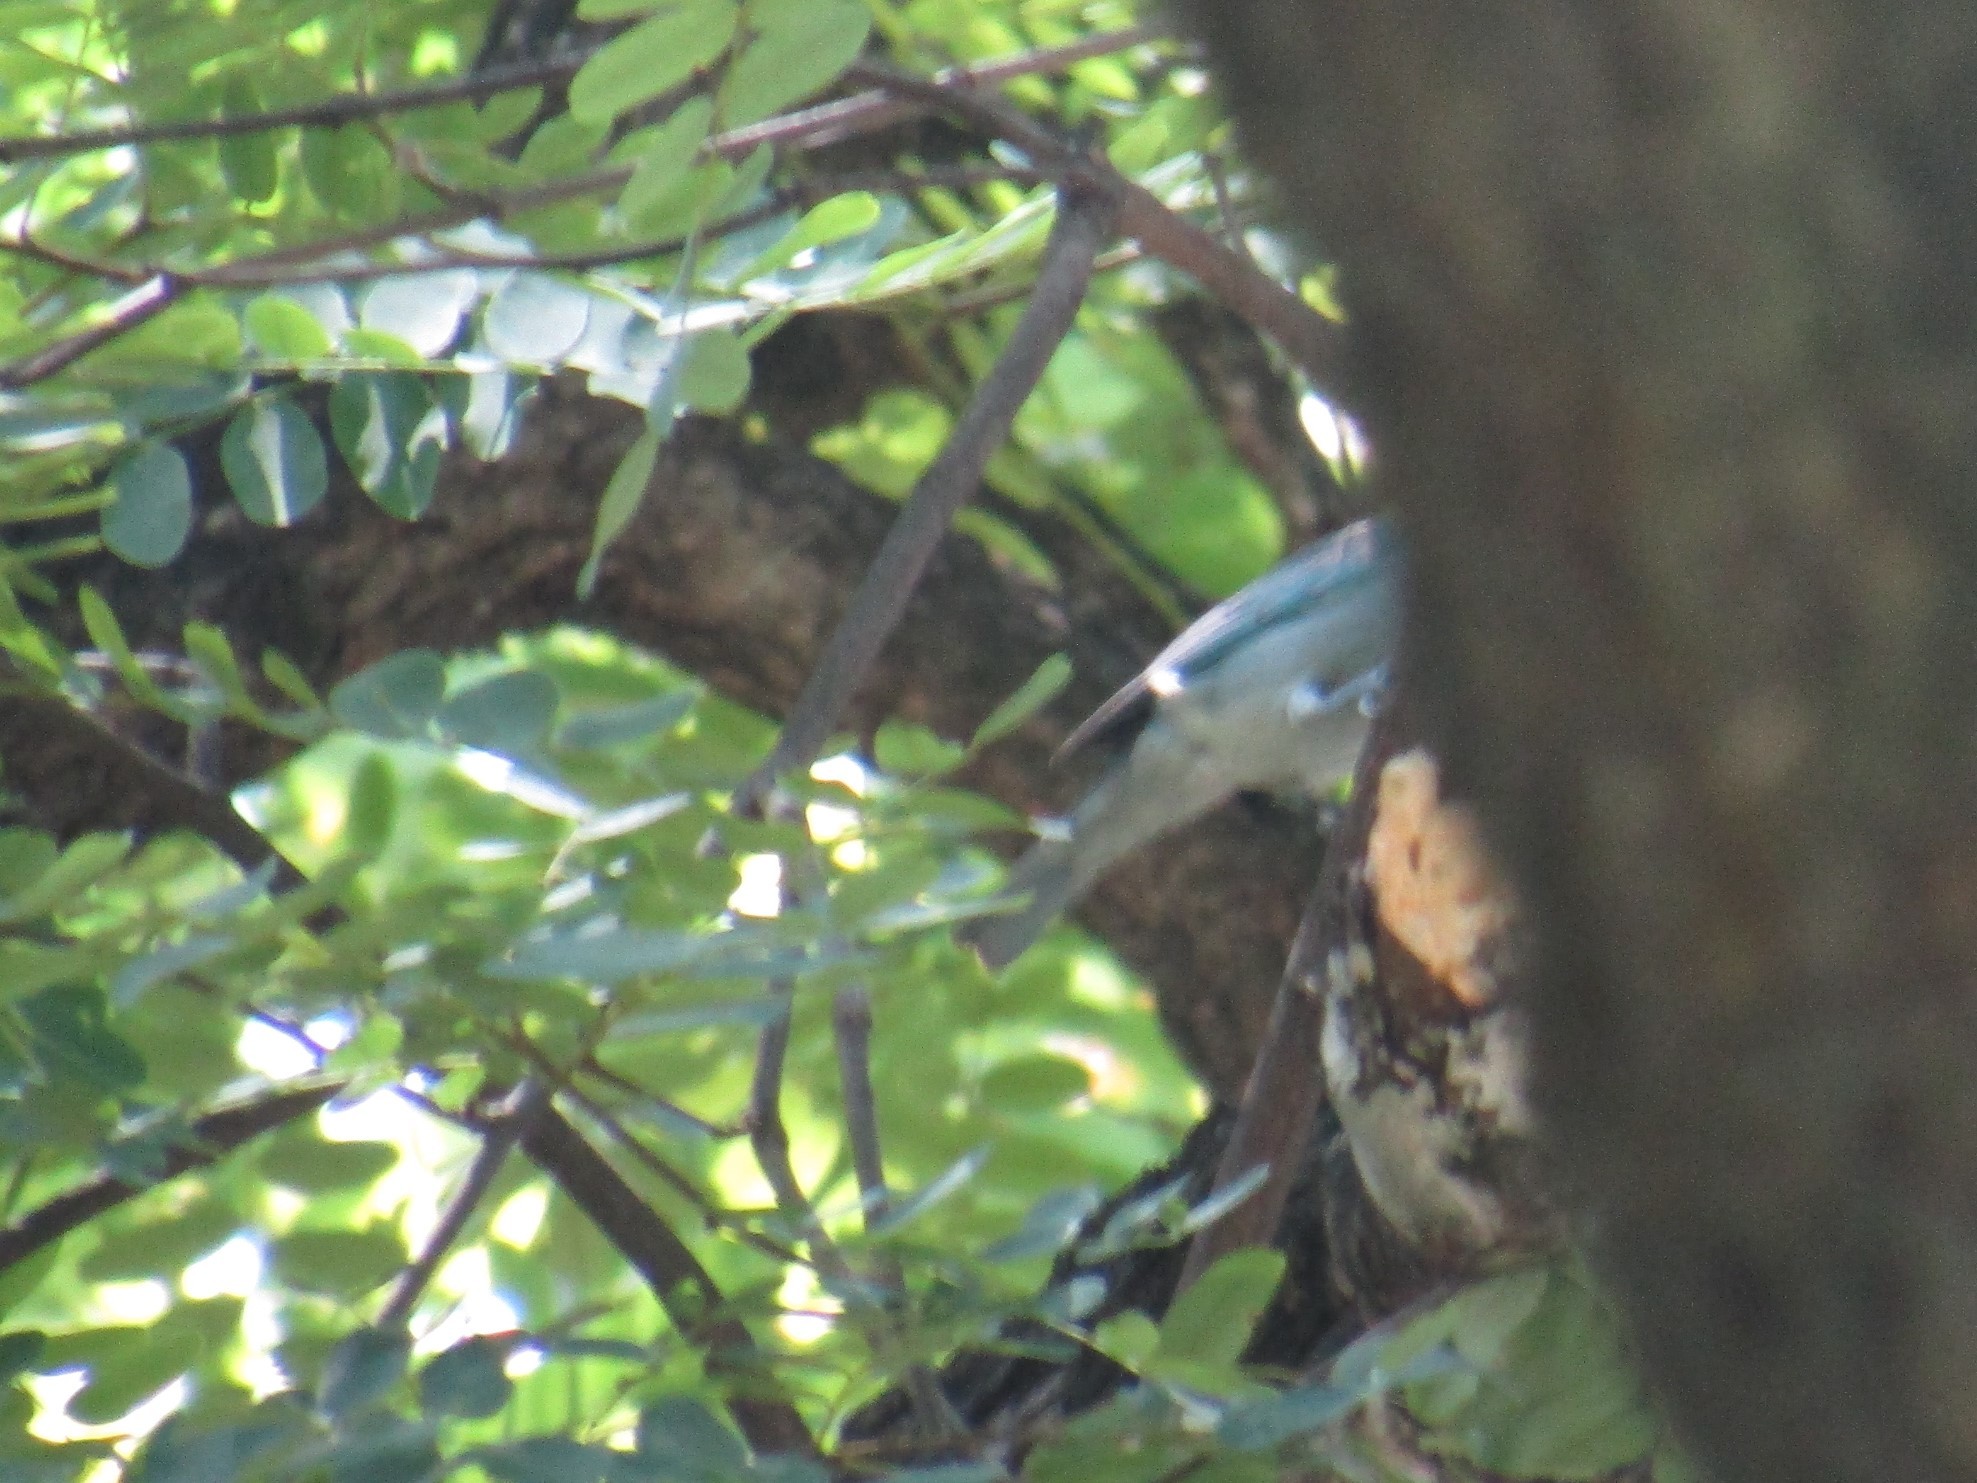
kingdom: Animalia
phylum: Chordata
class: Aves
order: Passeriformes
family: Thraupidae
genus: Thraupis
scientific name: Thraupis sayaca
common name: Sayaca tanager
